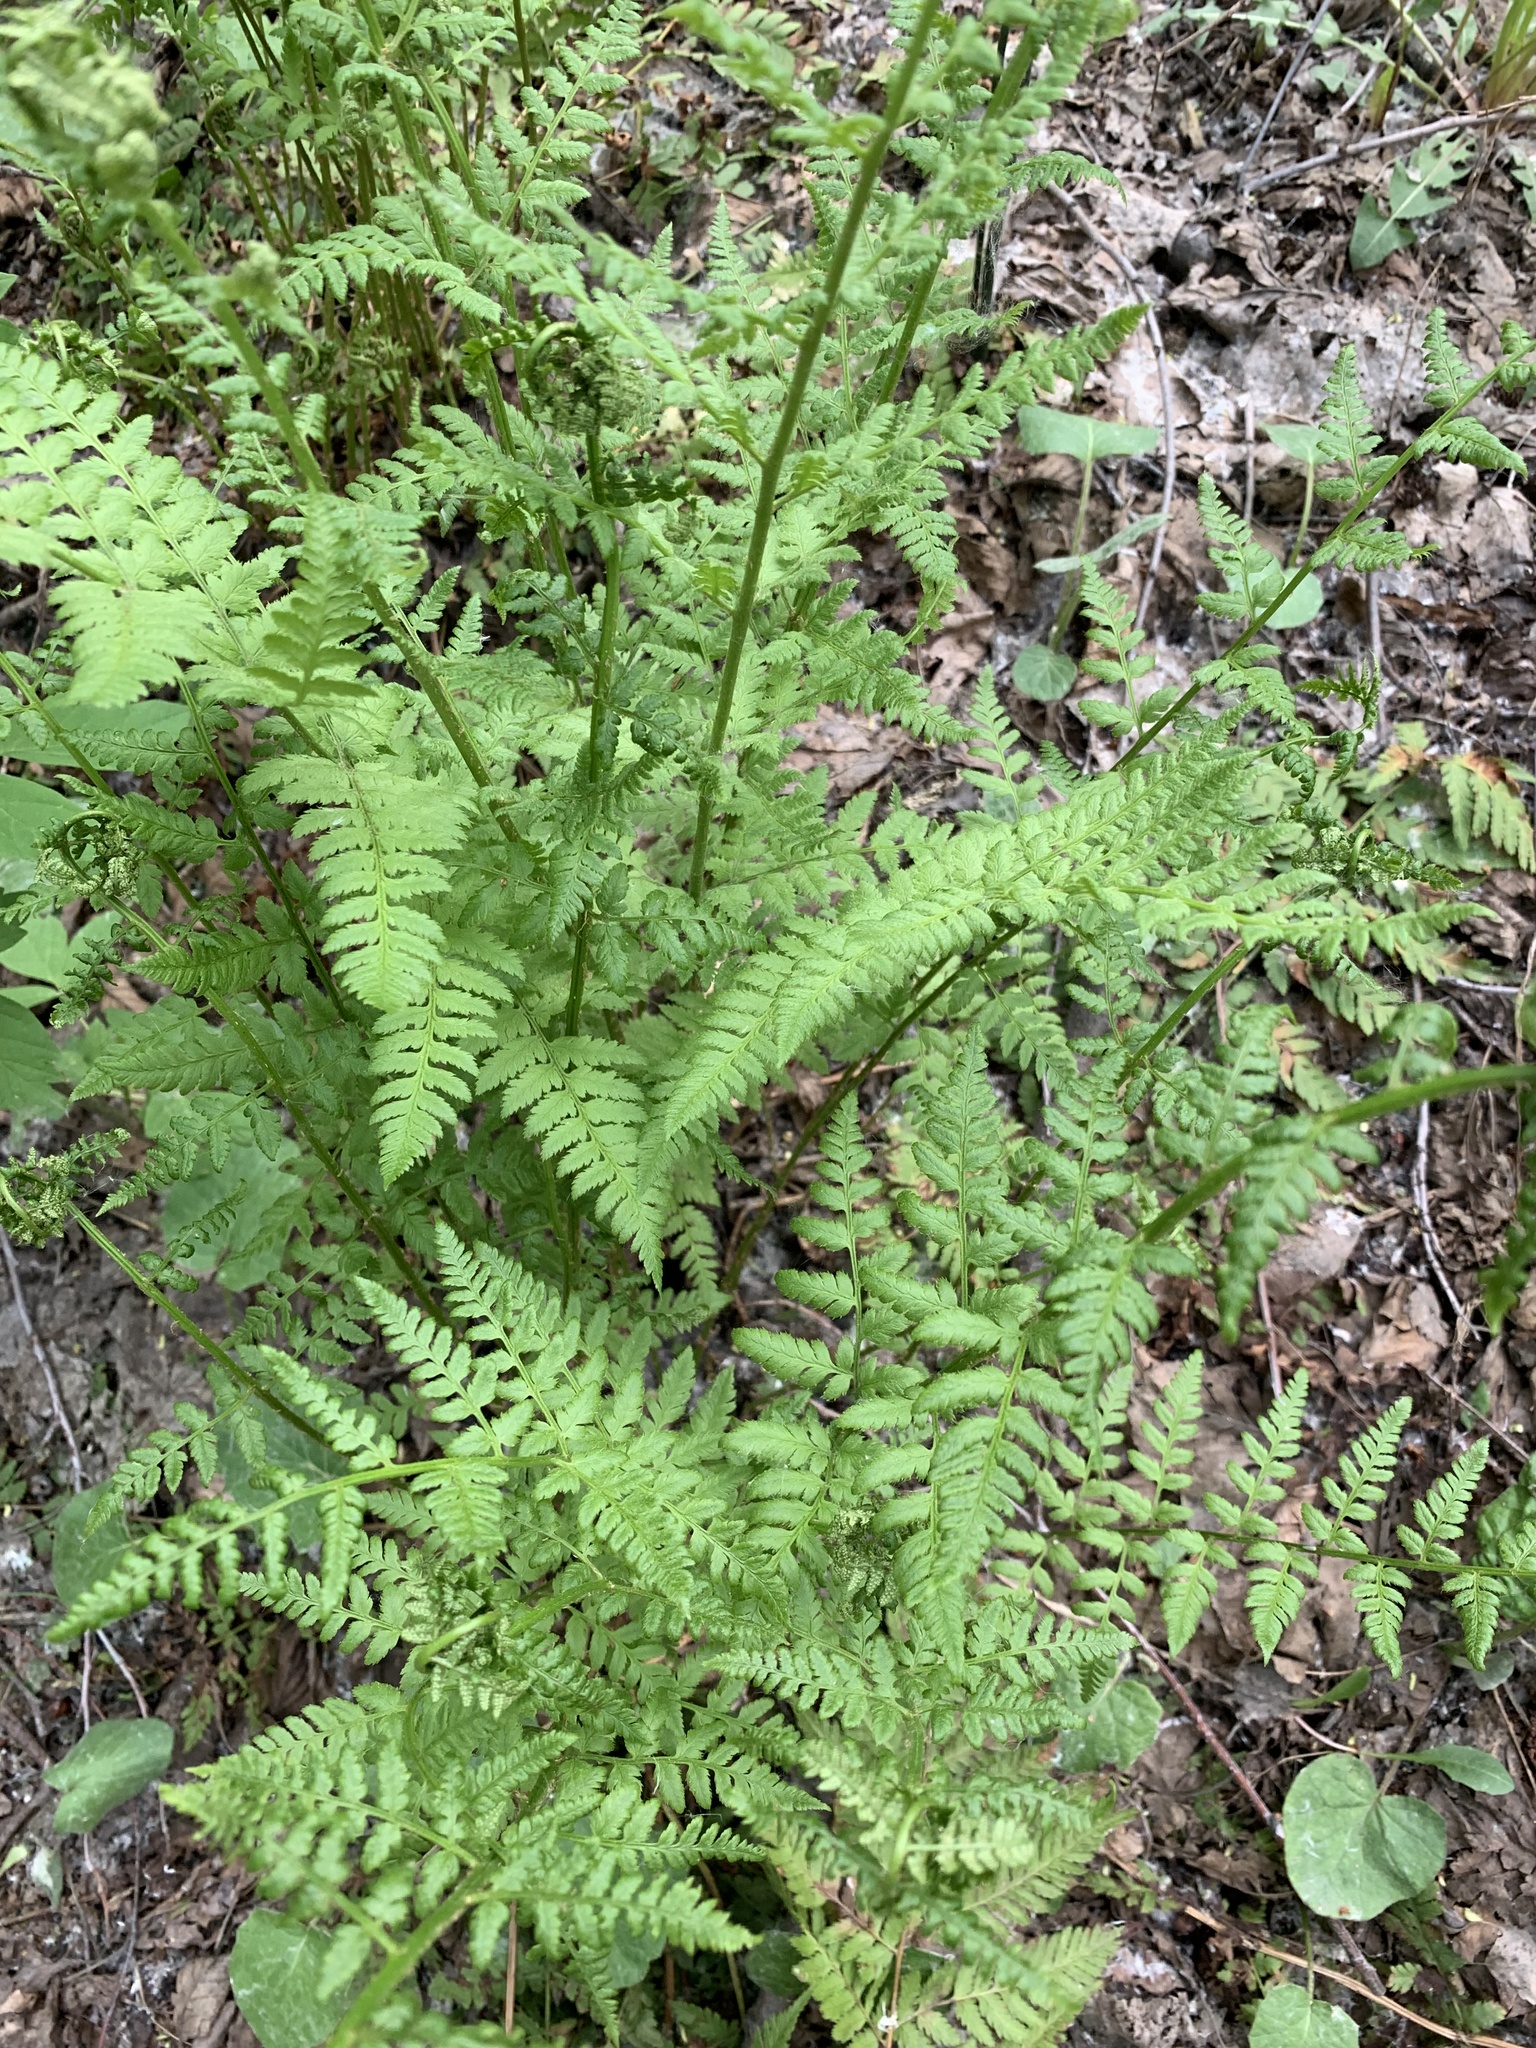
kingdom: Plantae
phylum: Tracheophyta
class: Polypodiopsida
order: Polypodiales
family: Dryopteridaceae
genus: Dryopteris
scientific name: Dryopteris carthusiana
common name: Narrow buckler-fern
